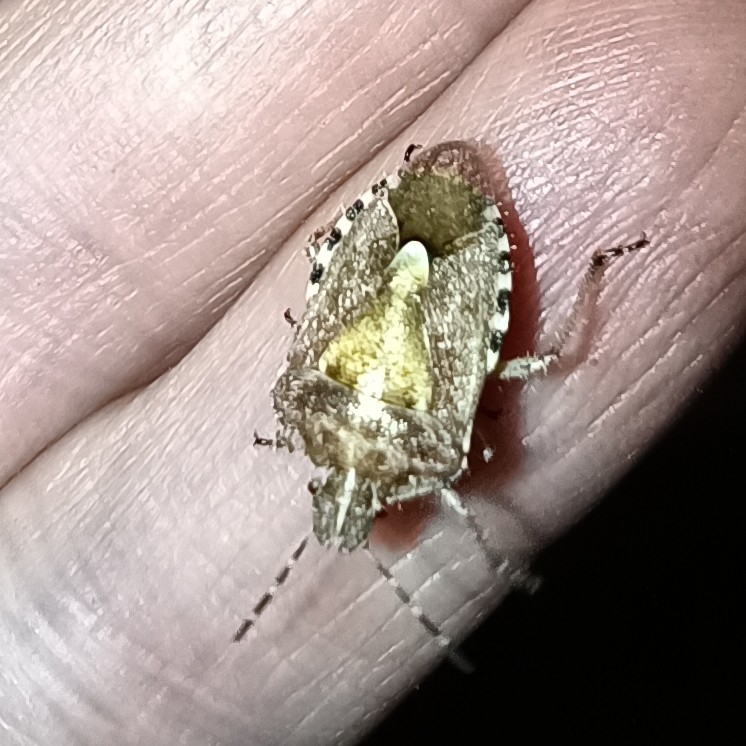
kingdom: Animalia
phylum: Arthropoda
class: Insecta
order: Hemiptera
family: Pentatomidae
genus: Dolycoris
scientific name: Dolycoris baccarum
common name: Sloe bug
